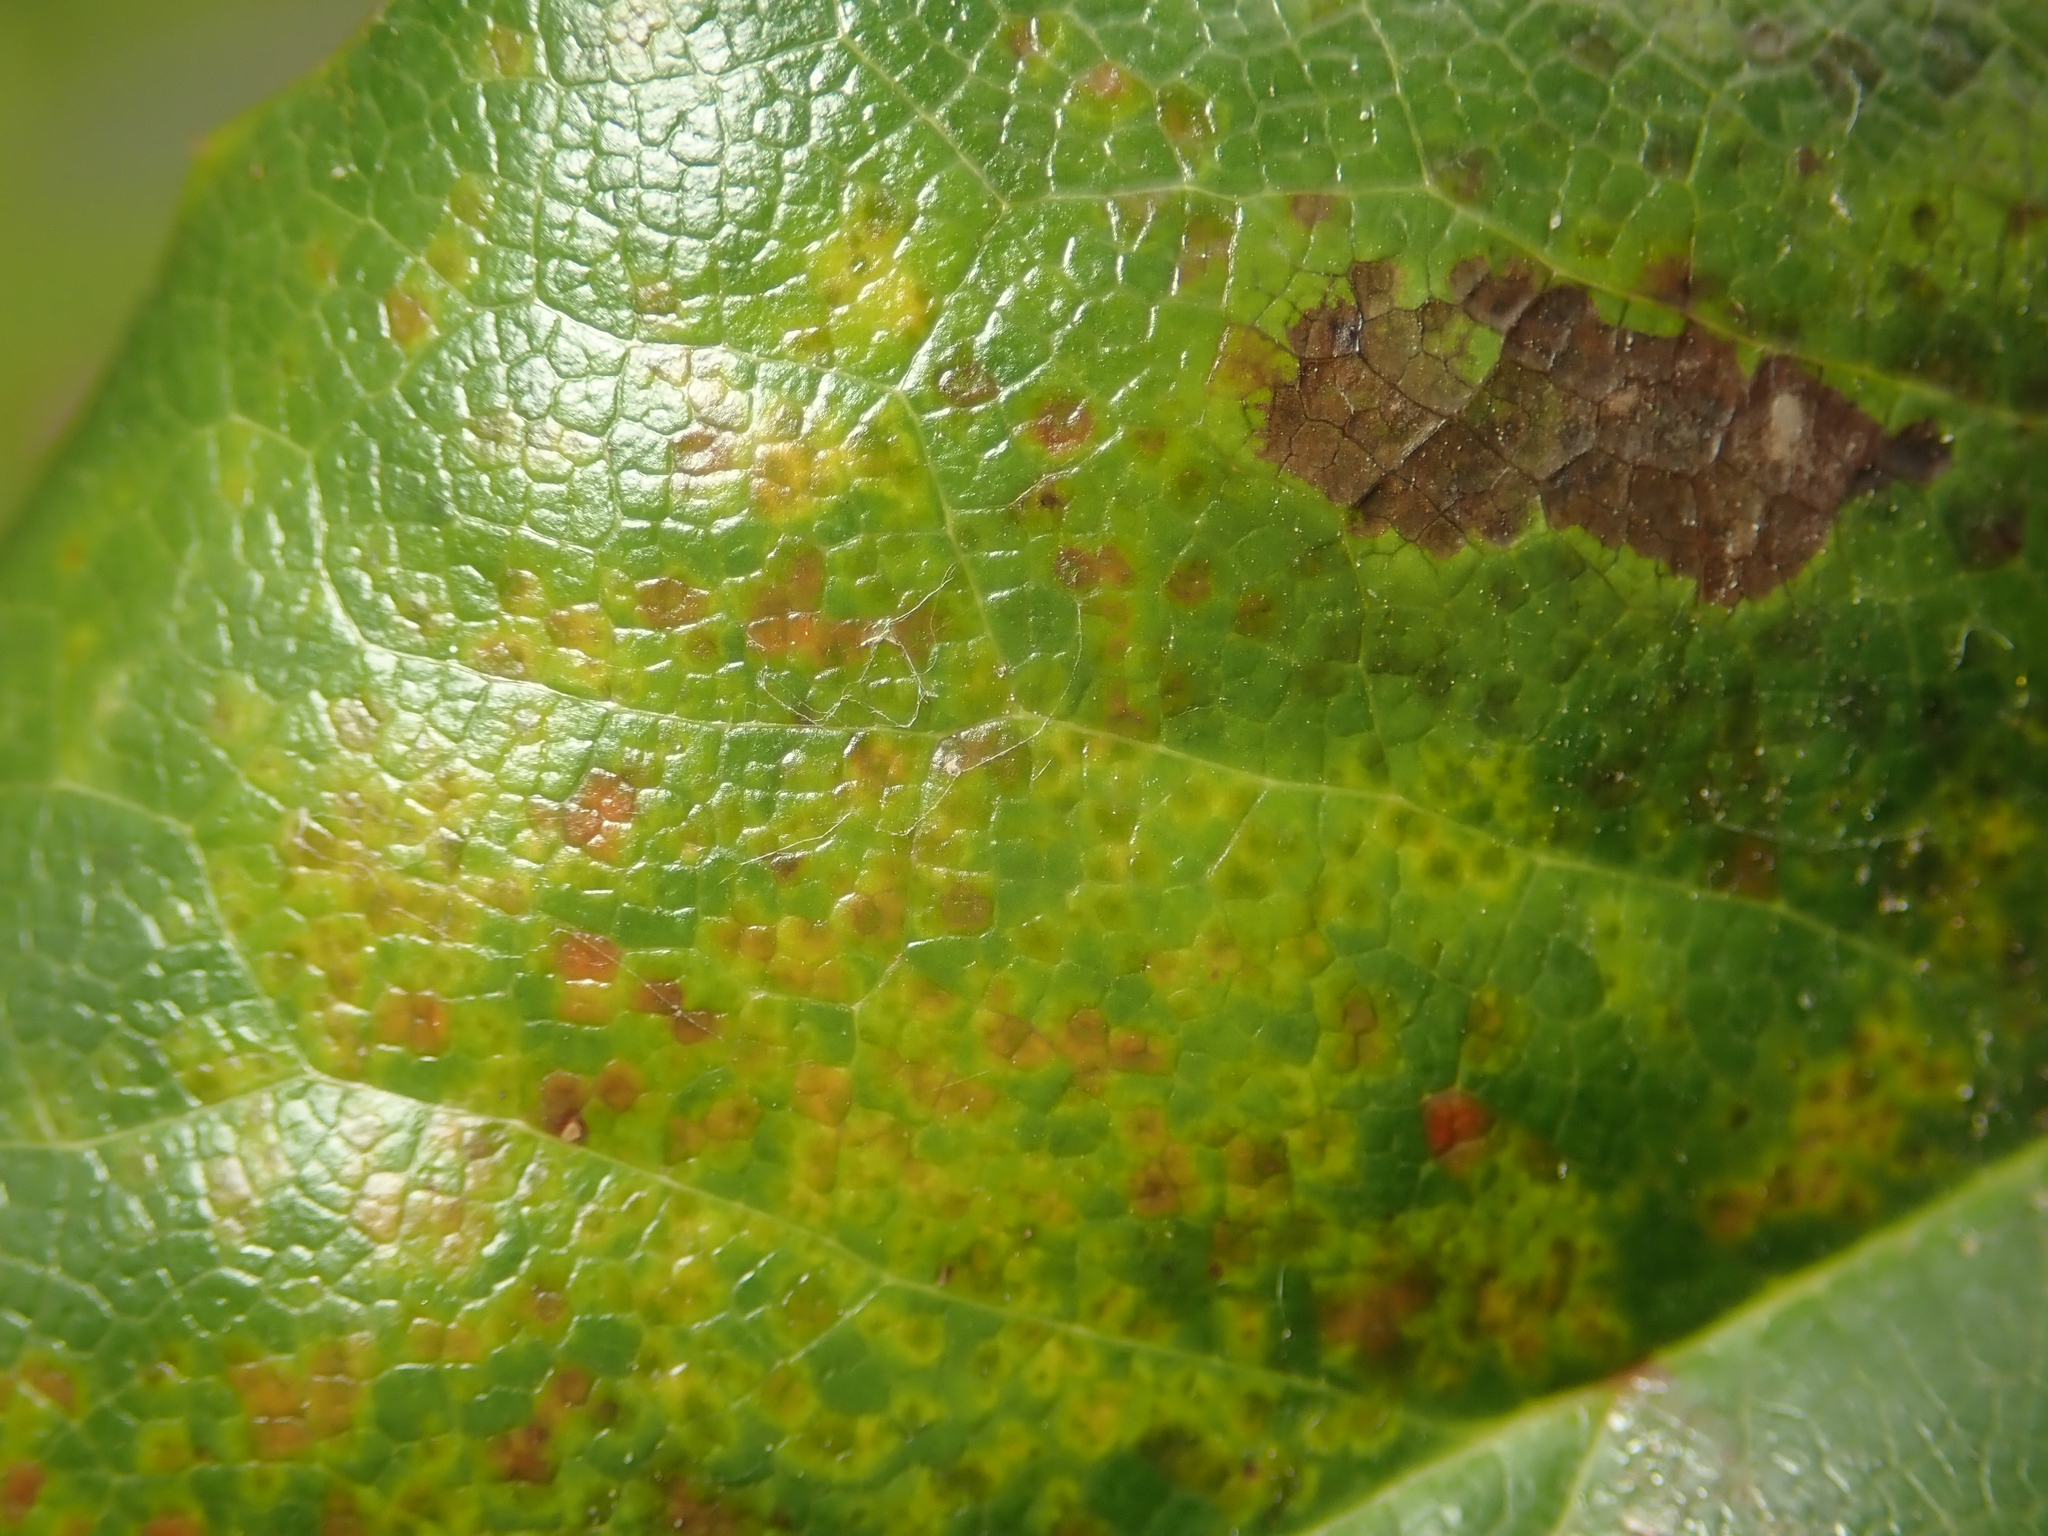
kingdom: Fungi
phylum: Basidiomycota
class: Pucciniomycetes
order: Pucciniales
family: Pucciniaceae
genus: Cumminsiella
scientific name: Cumminsiella mirabilissima
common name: Mahonia rust
